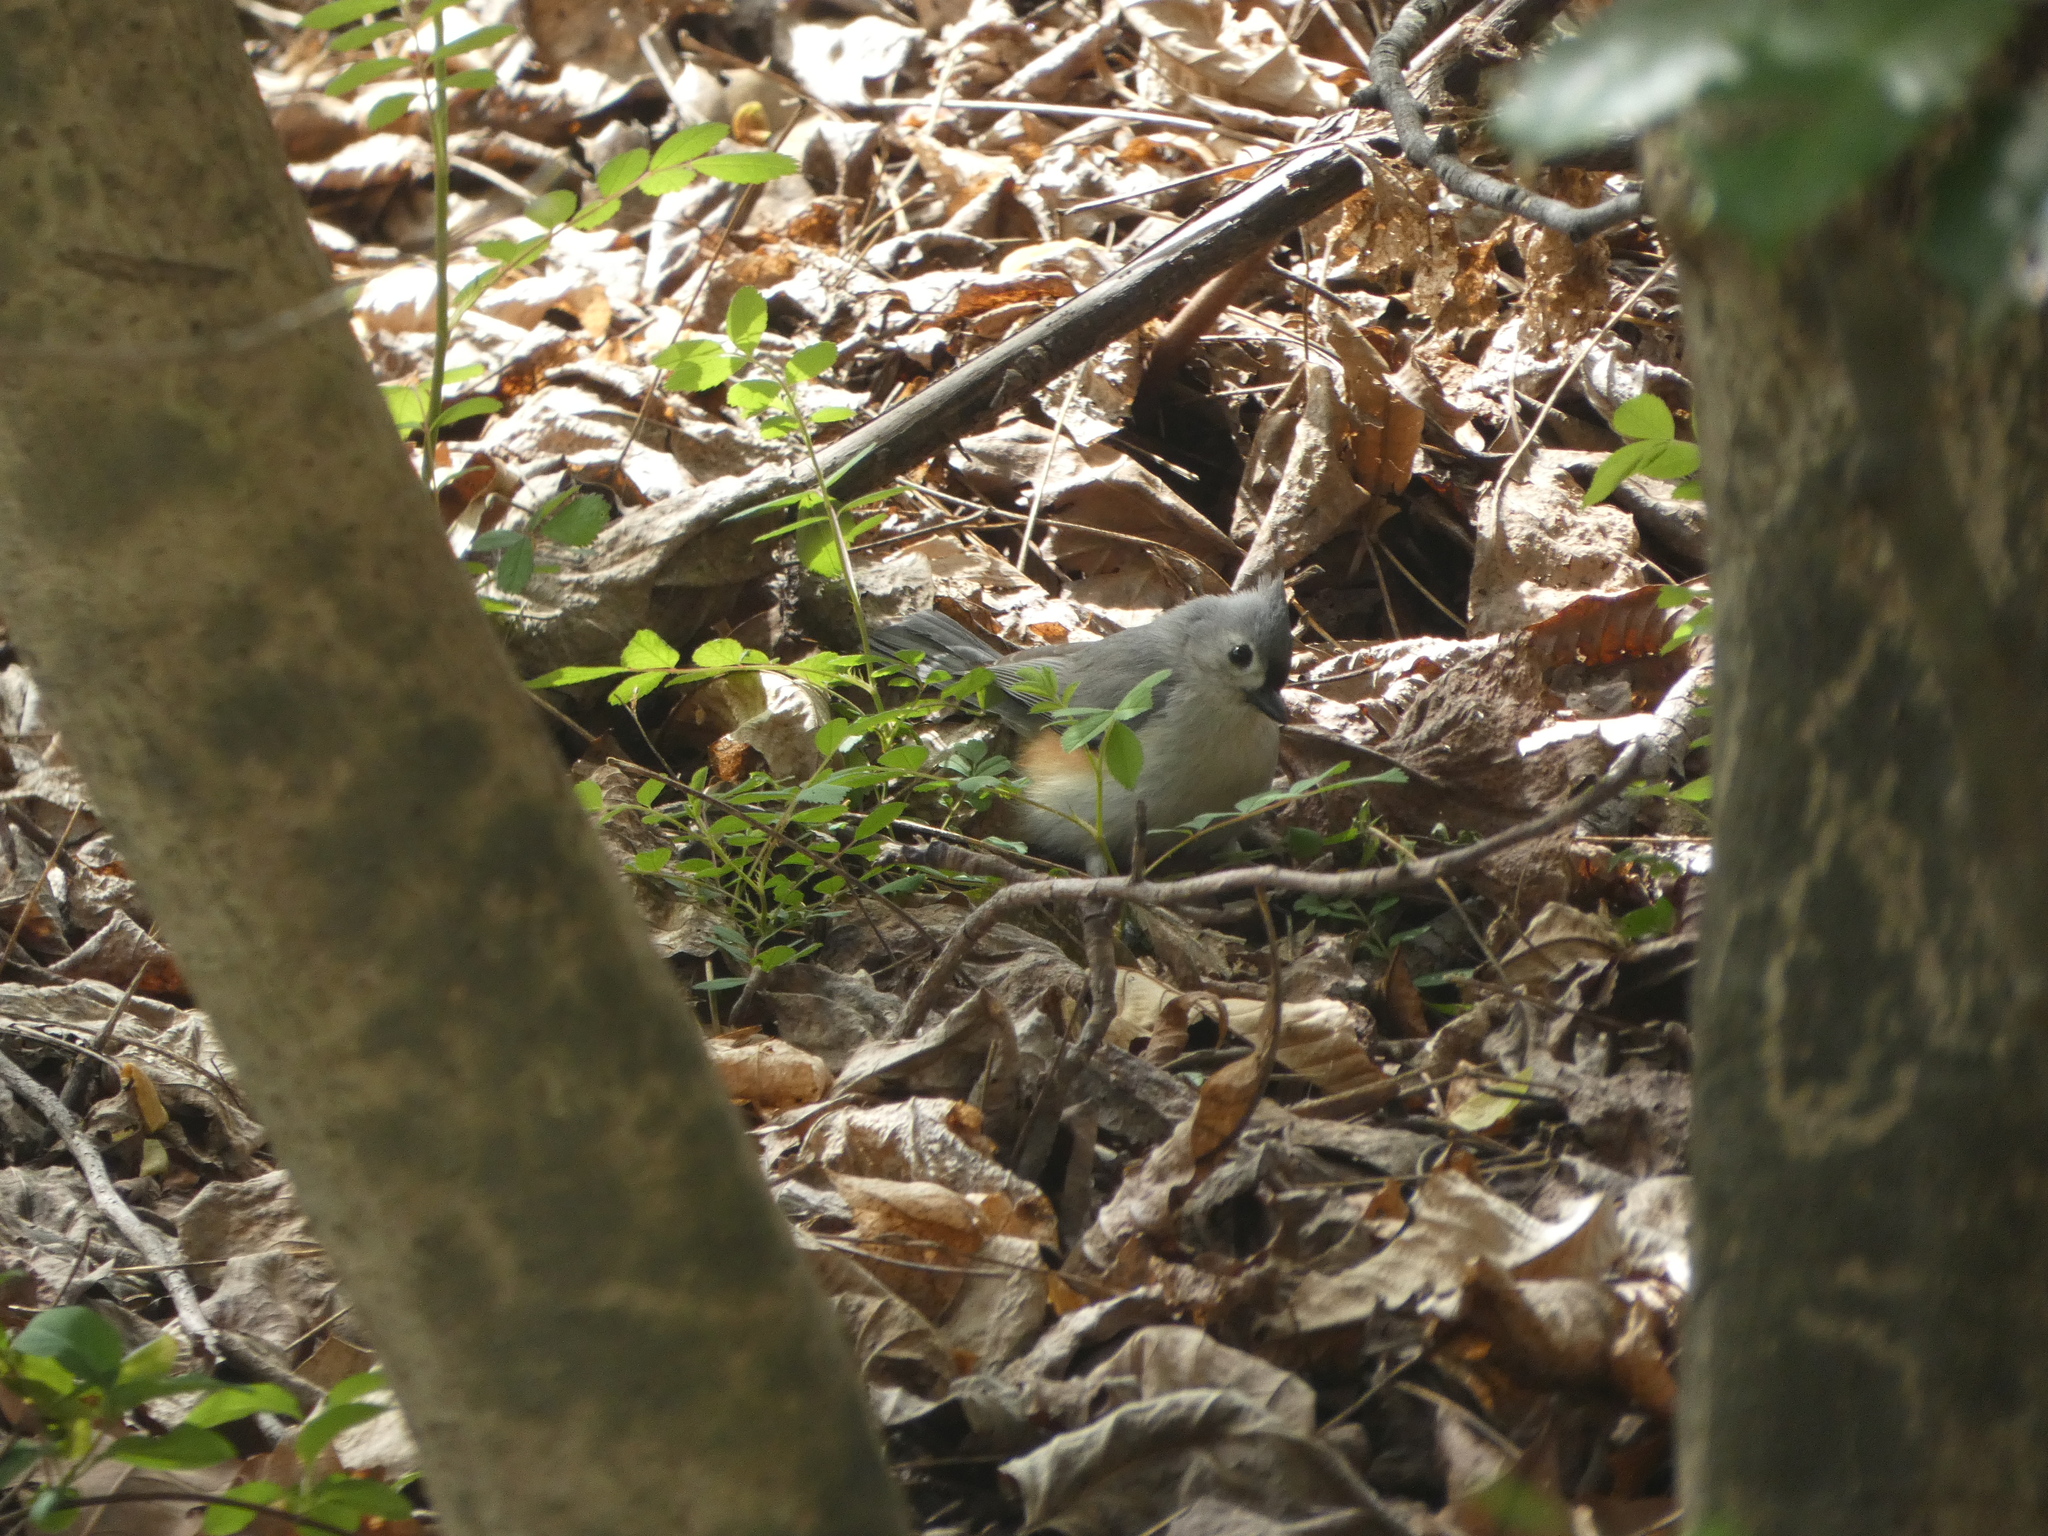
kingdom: Animalia
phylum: Chordata
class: Aves
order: Passeriformes
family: Paridae
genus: Baeolophus
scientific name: Baeolophus bicolor
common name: Tufted titmouse
